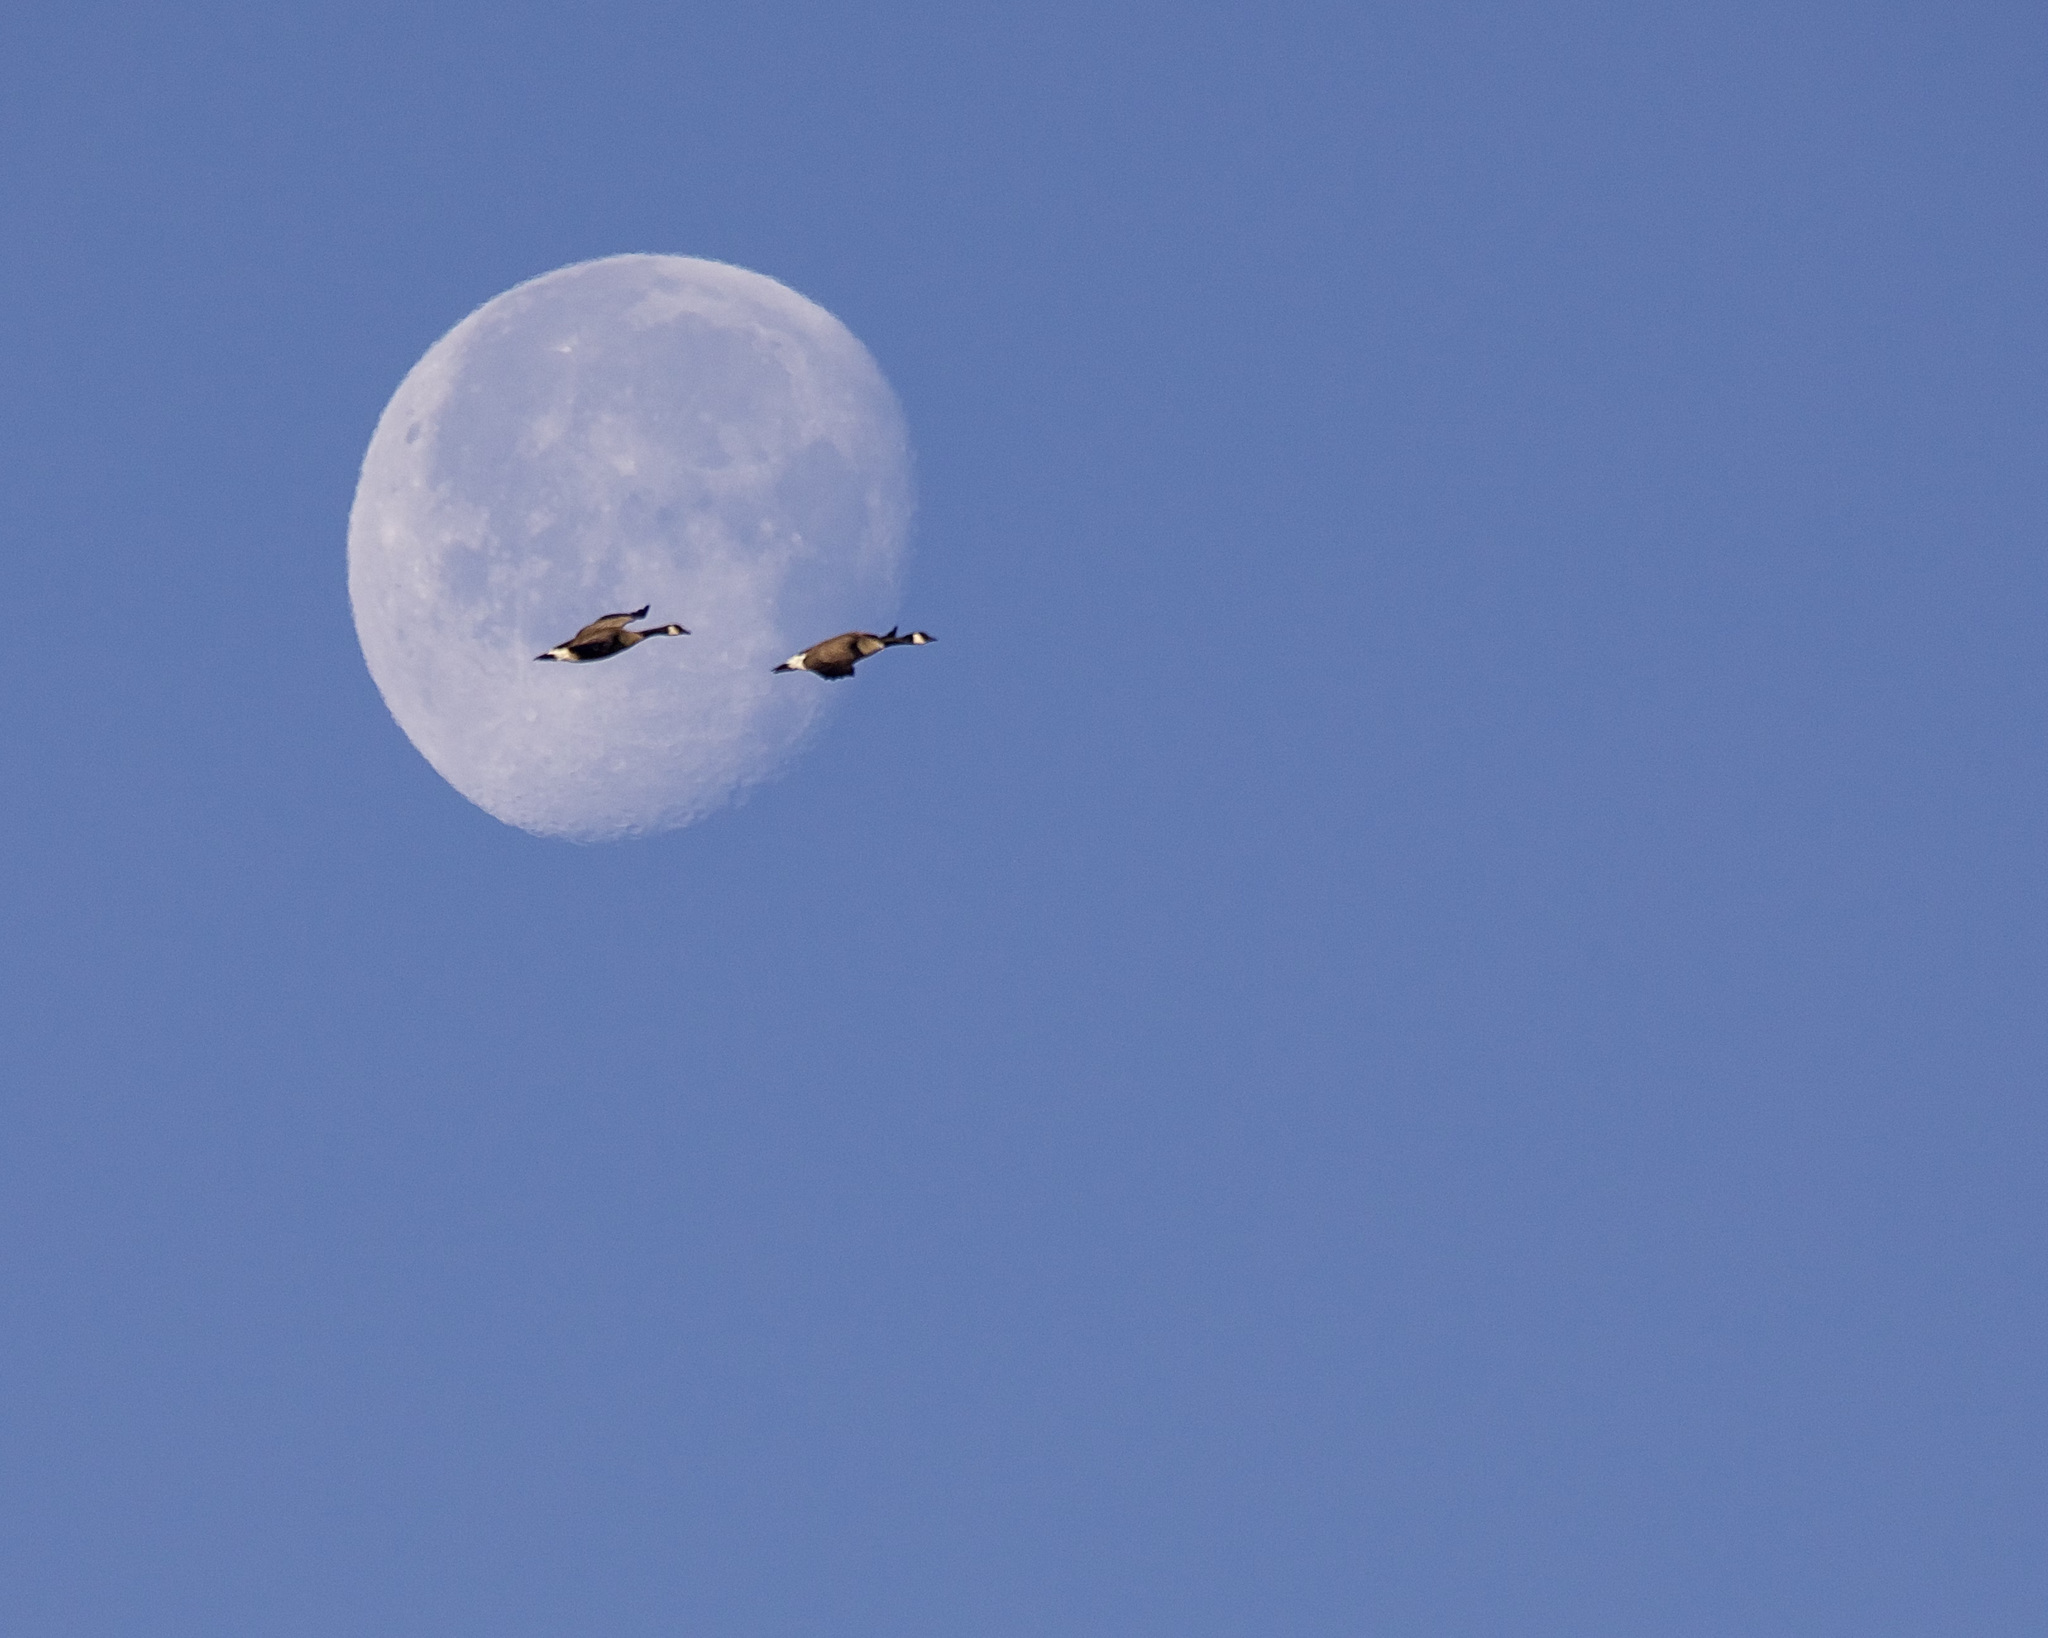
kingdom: Animalia
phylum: Chordata
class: Aves
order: Anseriformes
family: Anatidae
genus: Branta
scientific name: Branta canadensis
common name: Canada goose
